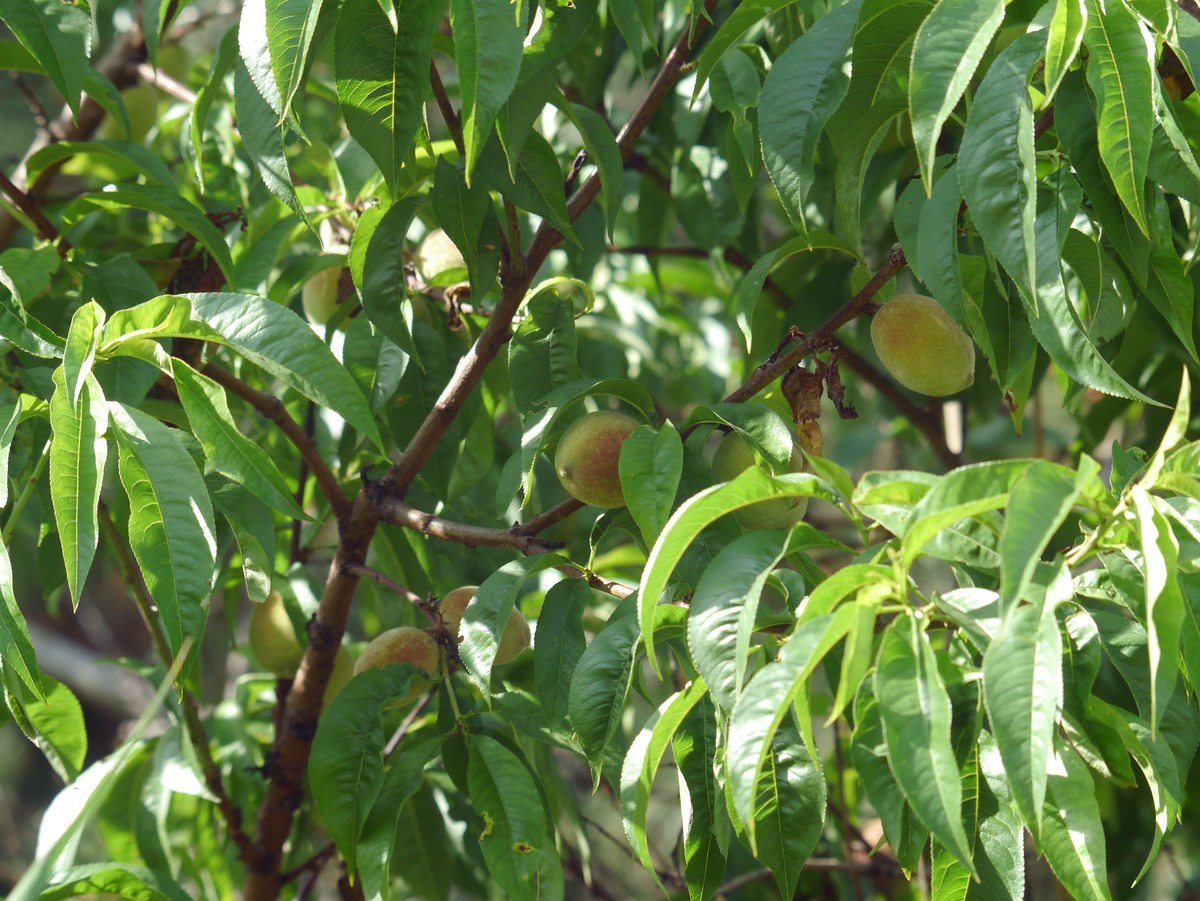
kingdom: Plantae
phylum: Tracheophyta
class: Magnoliopsida
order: Rosales
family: Rosaceae
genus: Prunus
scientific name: Prunus persica
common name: Peach
